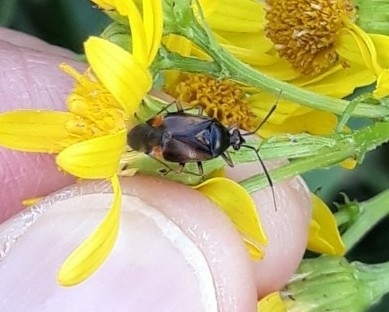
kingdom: Animalia
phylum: Arthropoda
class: Insecta
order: Hemiptera
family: Miridae
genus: Deraeocoris
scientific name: Deraeocoris ruber
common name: Plant bug
